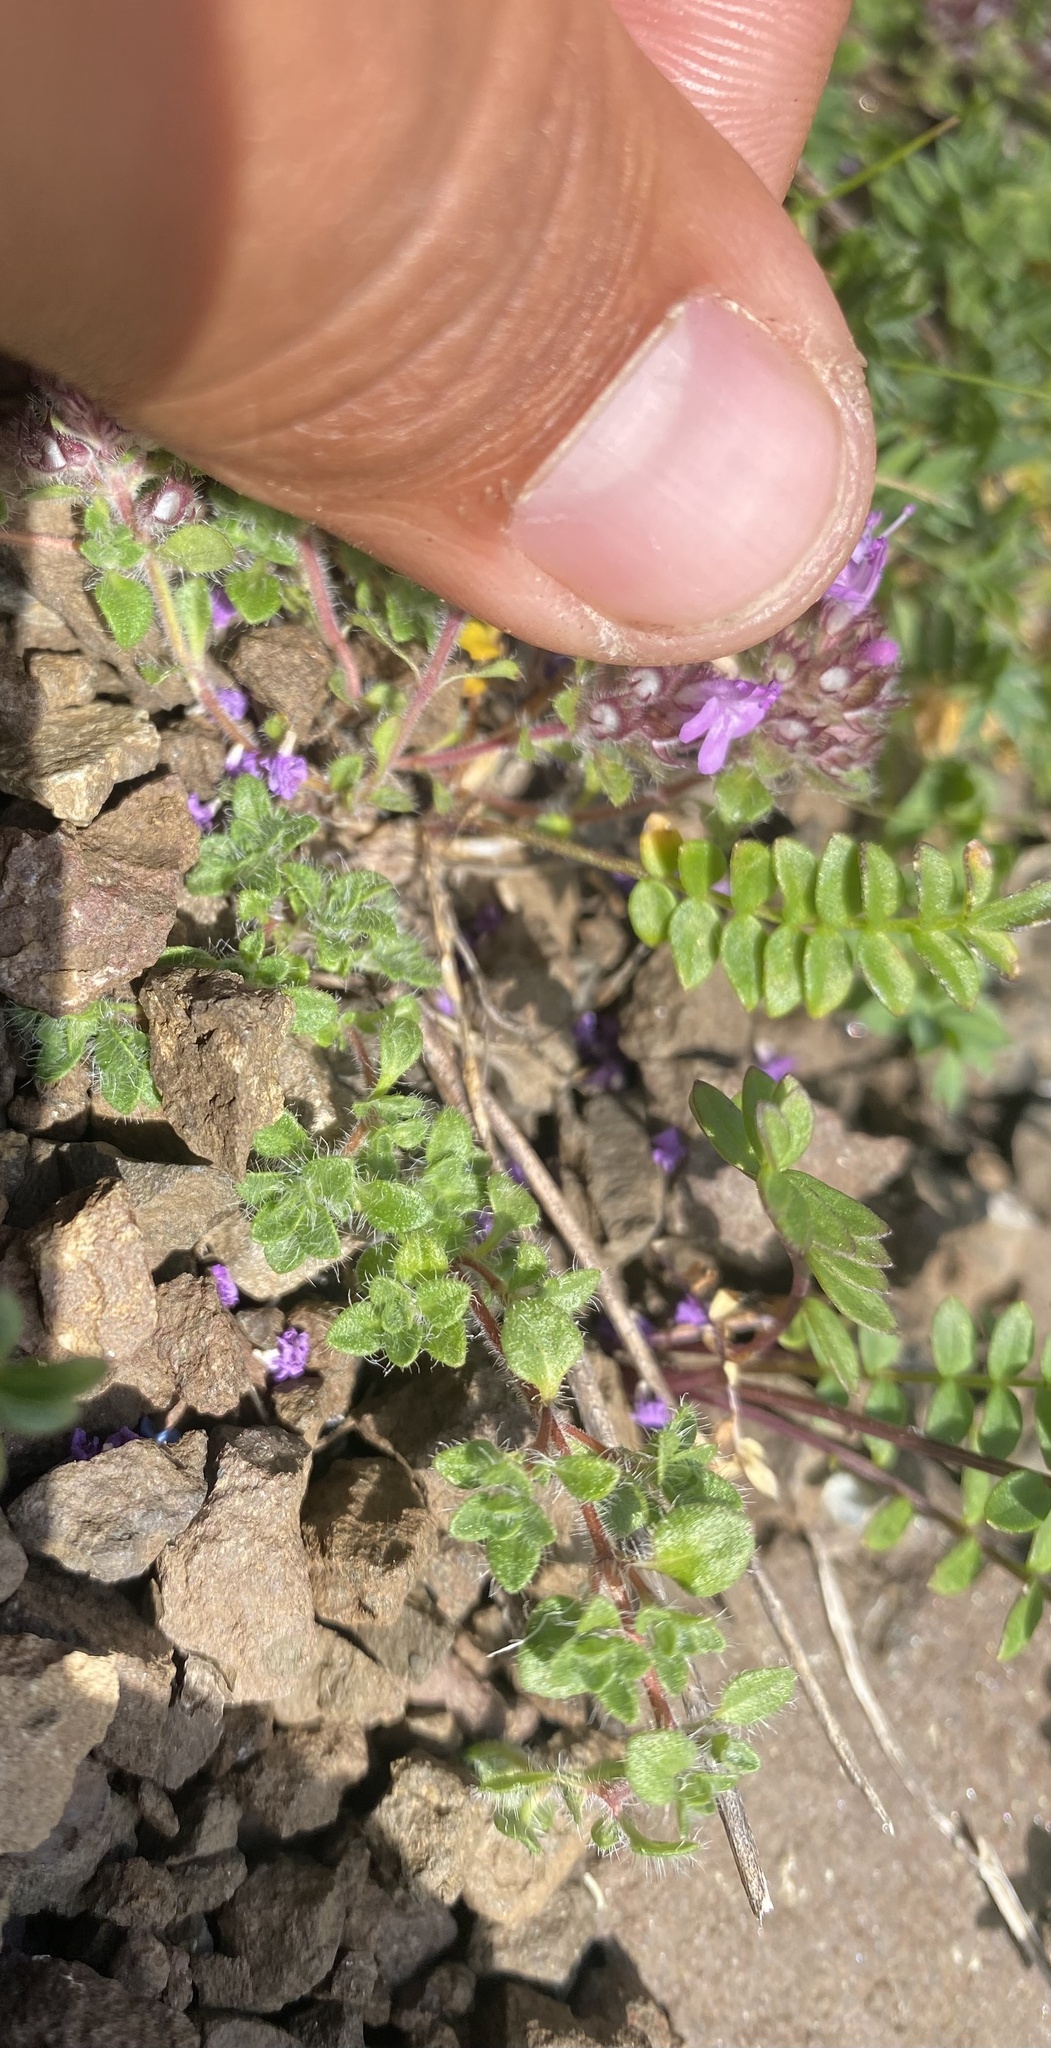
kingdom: Plantae
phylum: Tracheophyta
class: Magnoliopsida
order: Lamiales
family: Lamiaceae
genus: Thymus
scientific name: Thymus reverdattoanus
